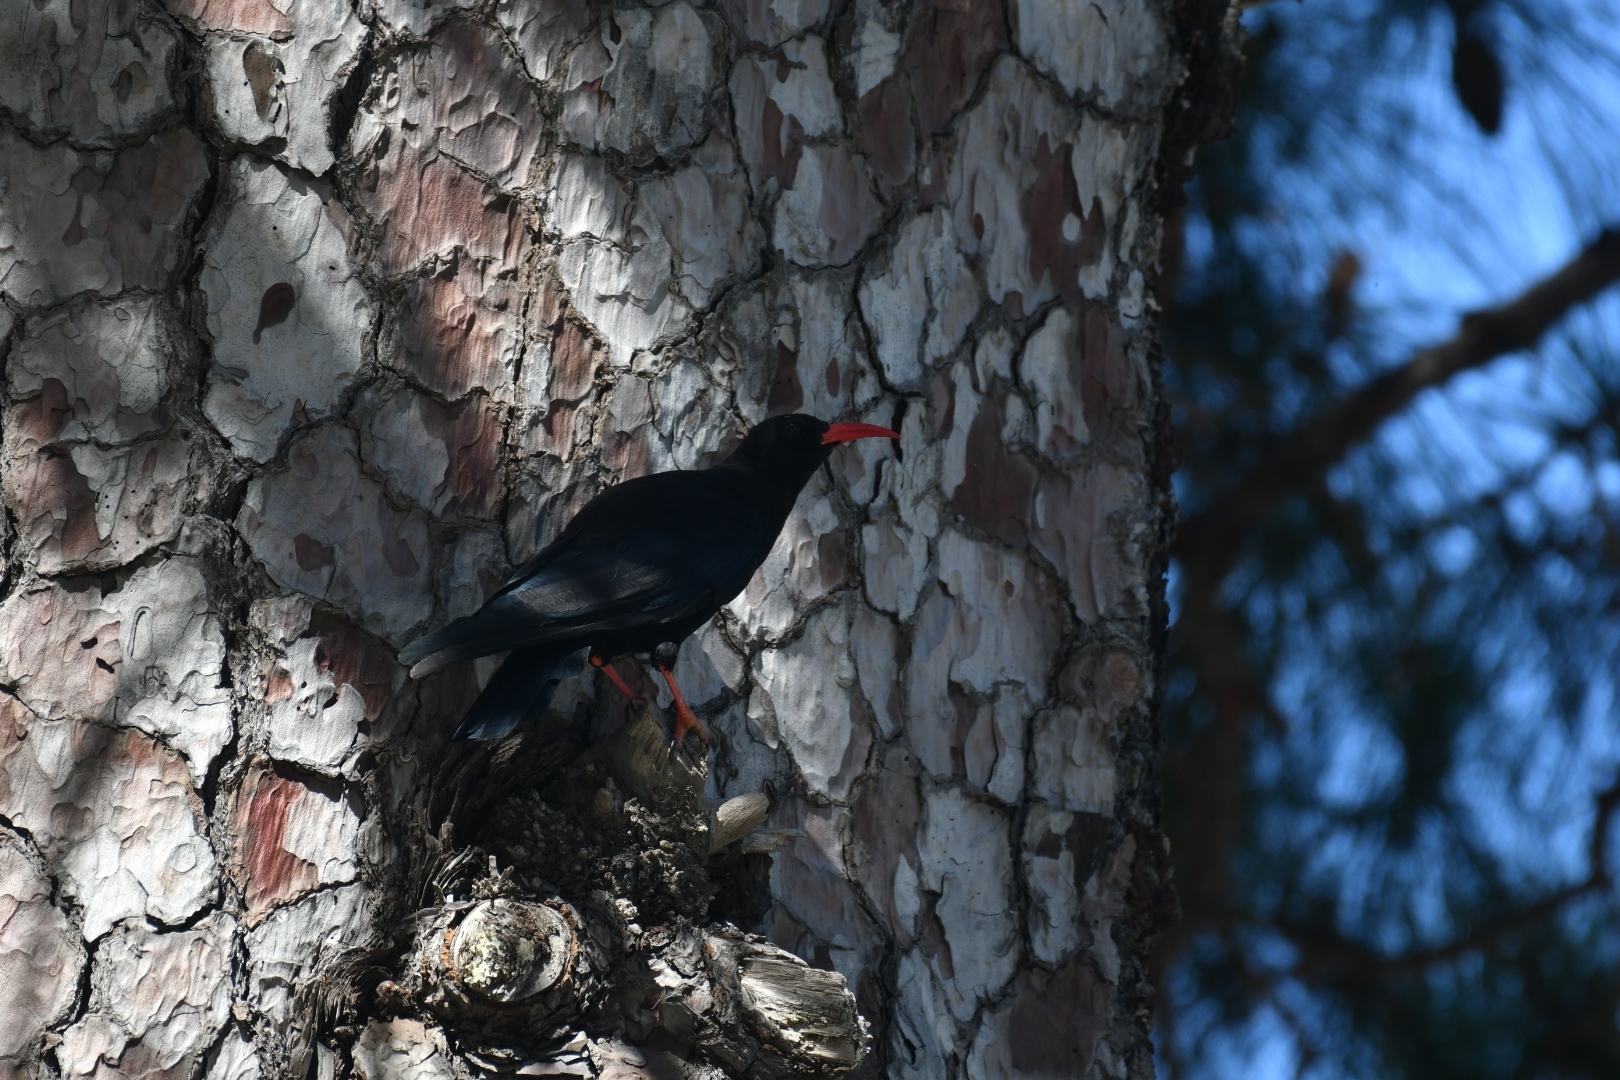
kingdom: Animalia
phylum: Chordata
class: Aves
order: Passeriformes
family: Corvidae
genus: Pyrrhocorax
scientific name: Pyrrhocorax pyrrhocorax
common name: Red-billed chough
